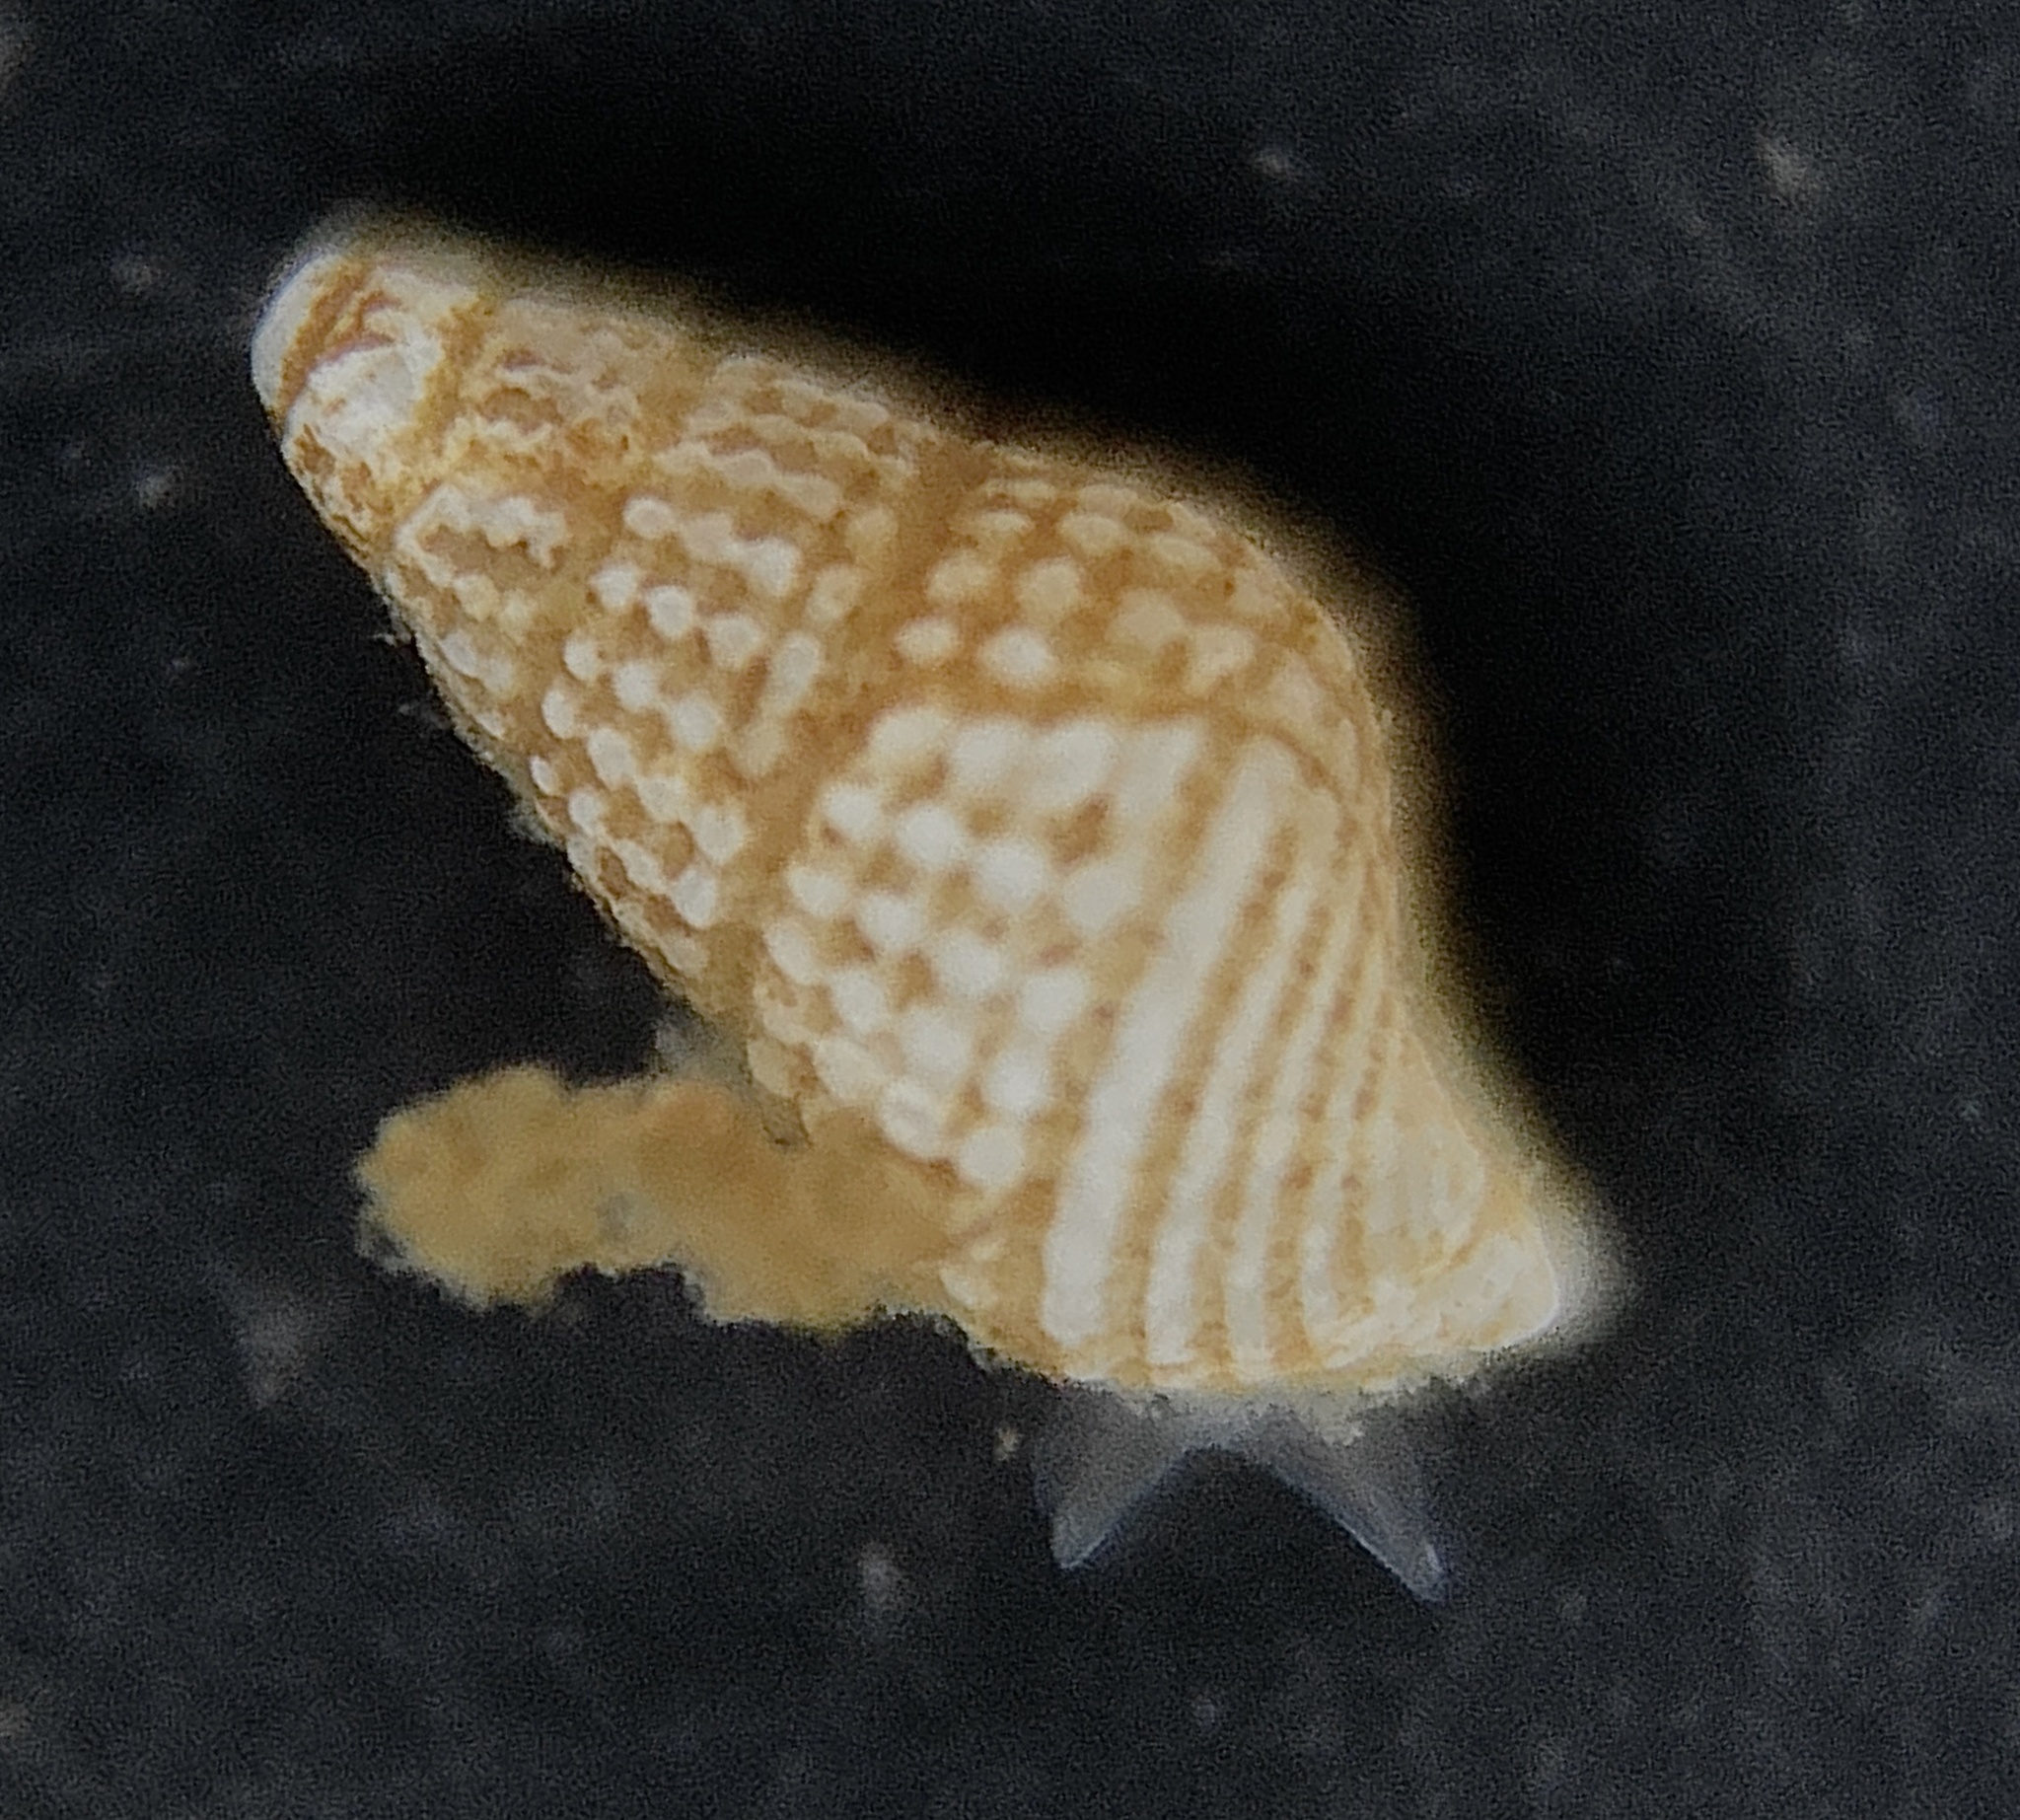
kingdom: Animalia
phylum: Mollusca
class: Gastropoda
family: Pyramidellidae
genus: Boonea
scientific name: Boonea seminuda
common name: Half-smooth odostome
